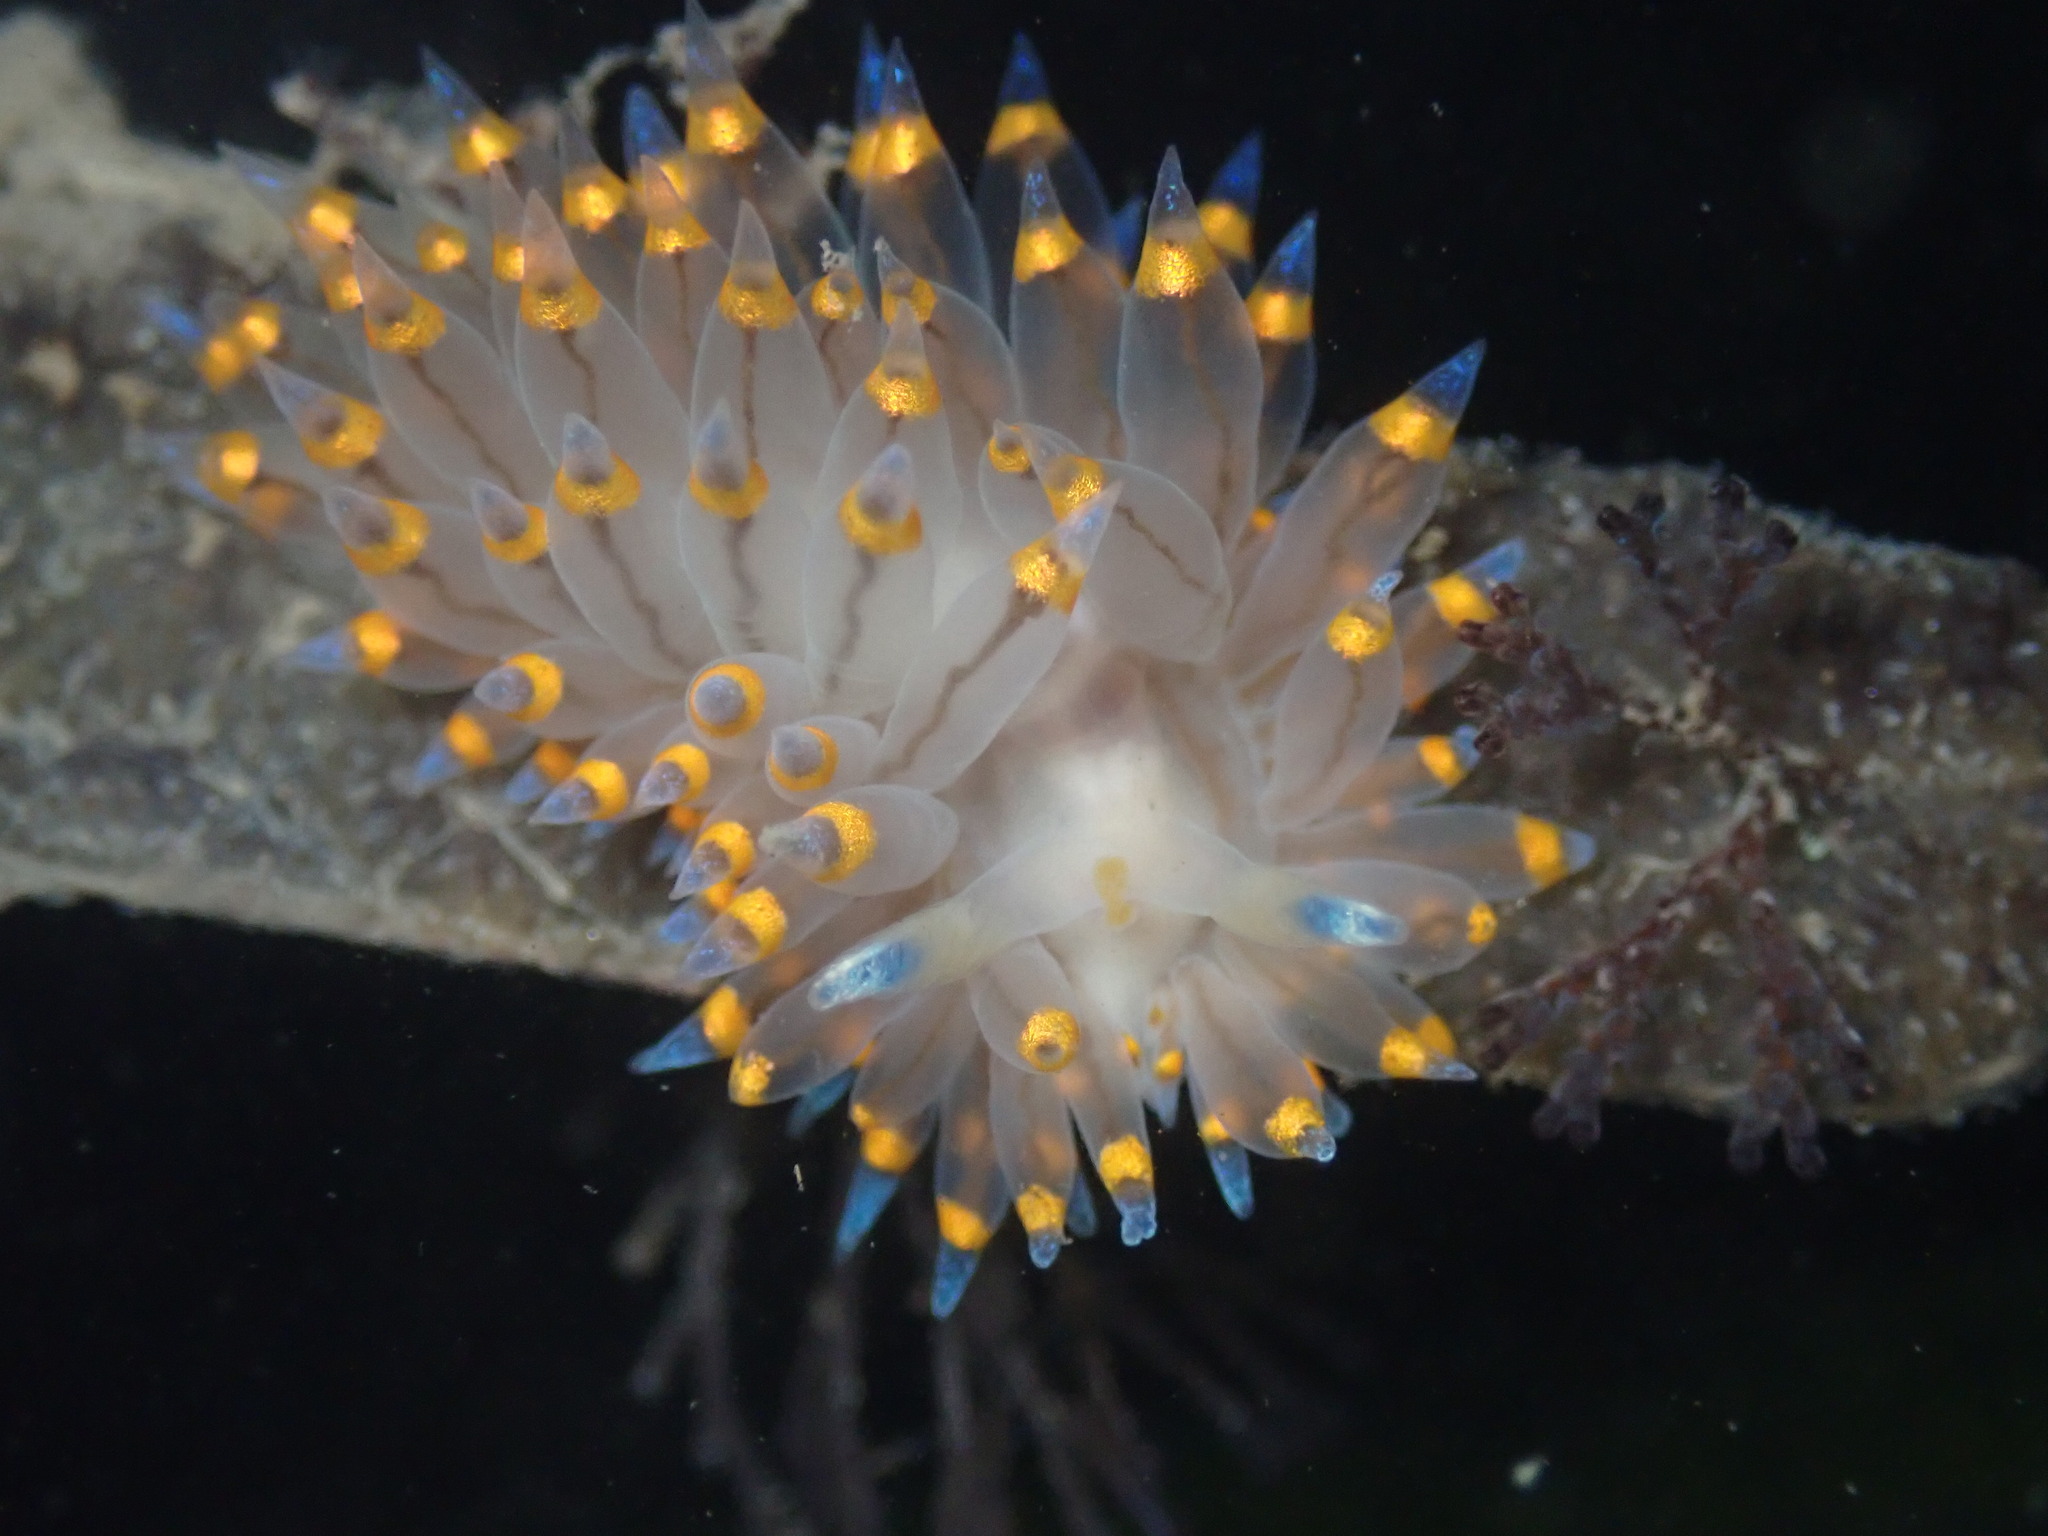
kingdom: Animalia
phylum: Mollusca
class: Gastropoda
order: Nudibranchia
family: Janolidae
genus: Antiopella
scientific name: Antiopella barbarensis
